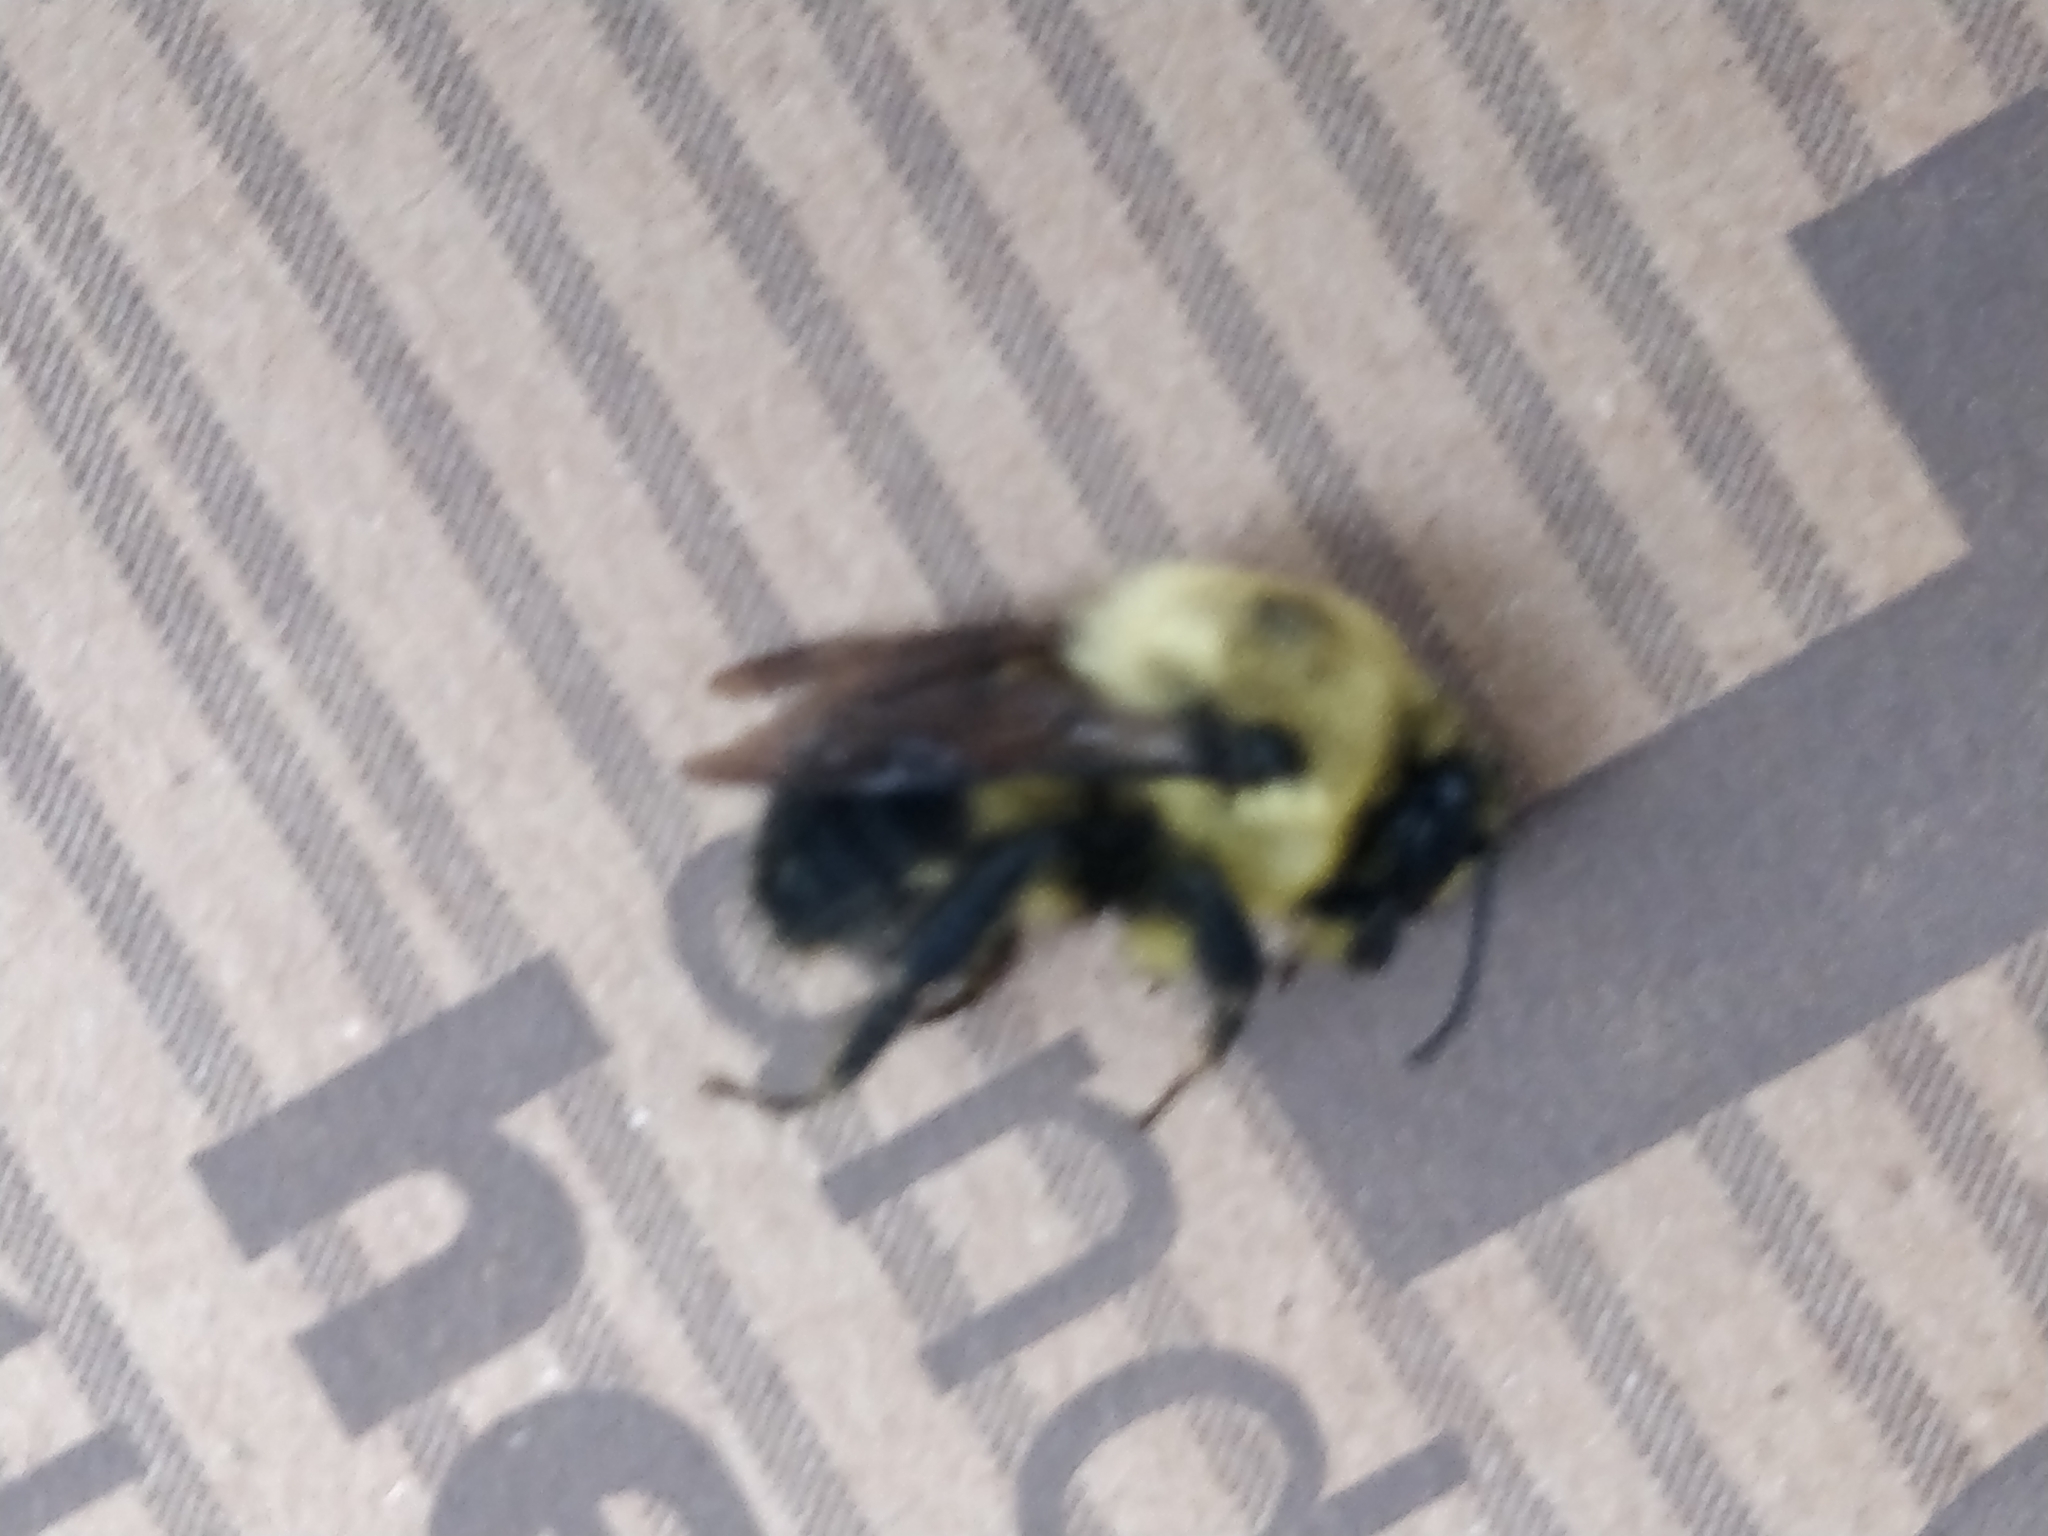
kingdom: Animalia
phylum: Arthropoda
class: Insecta
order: Hymenoptera
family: Apidae
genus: Bombus
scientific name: Bombus griseocollis
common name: Brown-belted bumble bee
